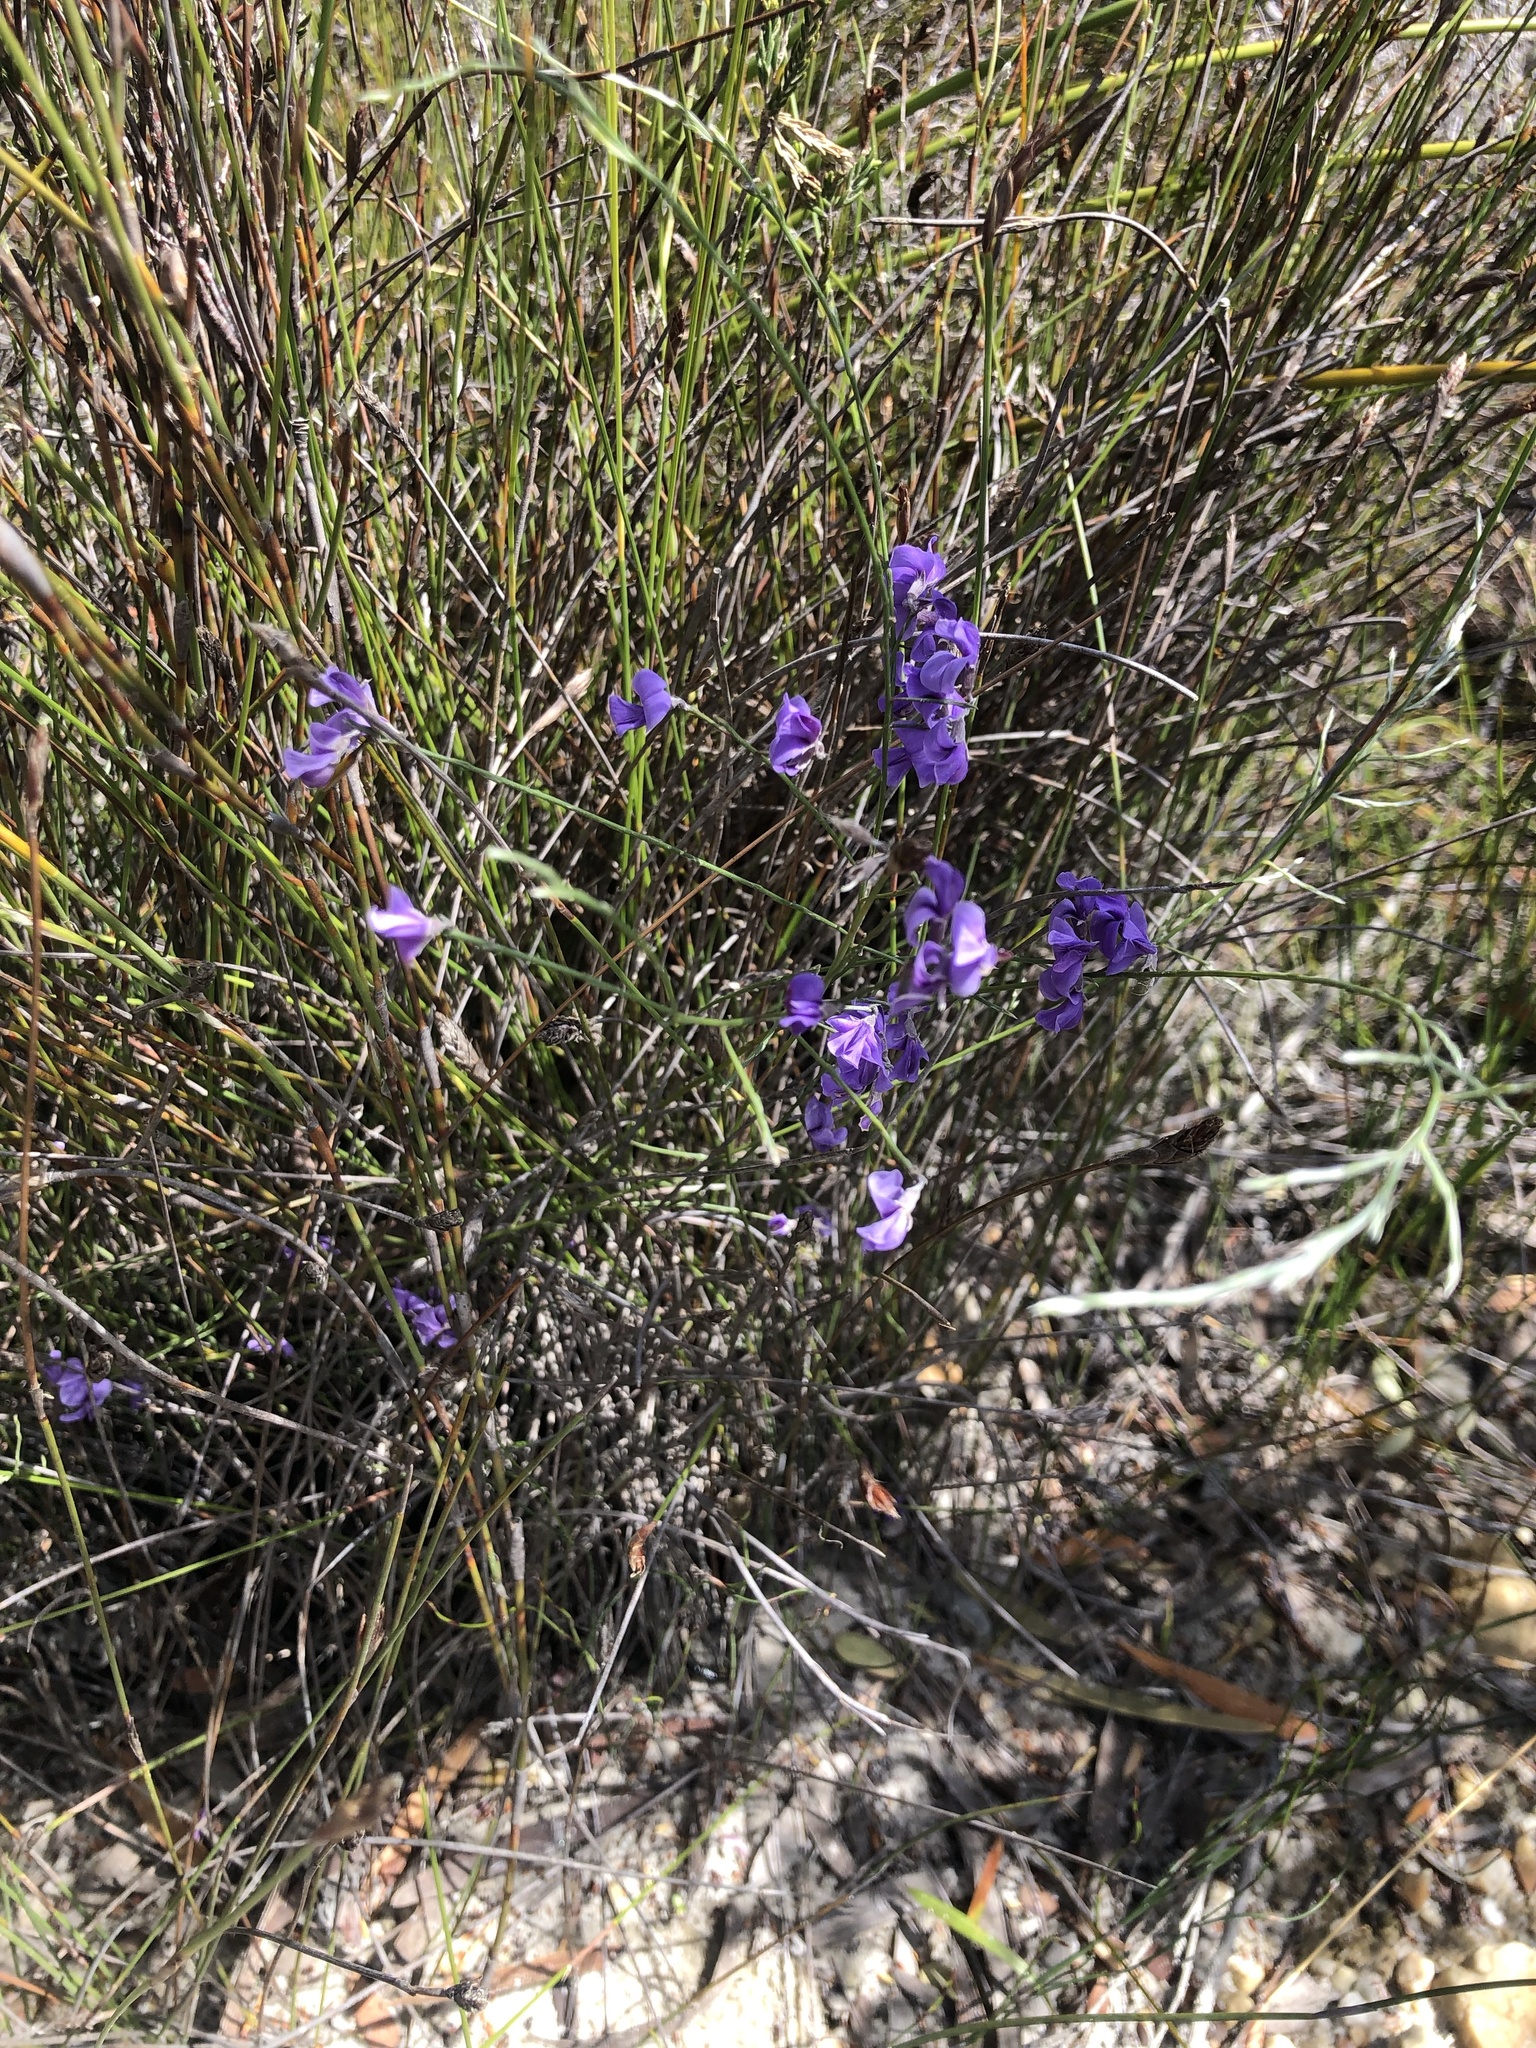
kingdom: Plantae
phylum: Tracheophyta
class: Magnoliopsida
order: Fabales
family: Fabaceae
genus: Amphithalea
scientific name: Amphithalea biovulata
